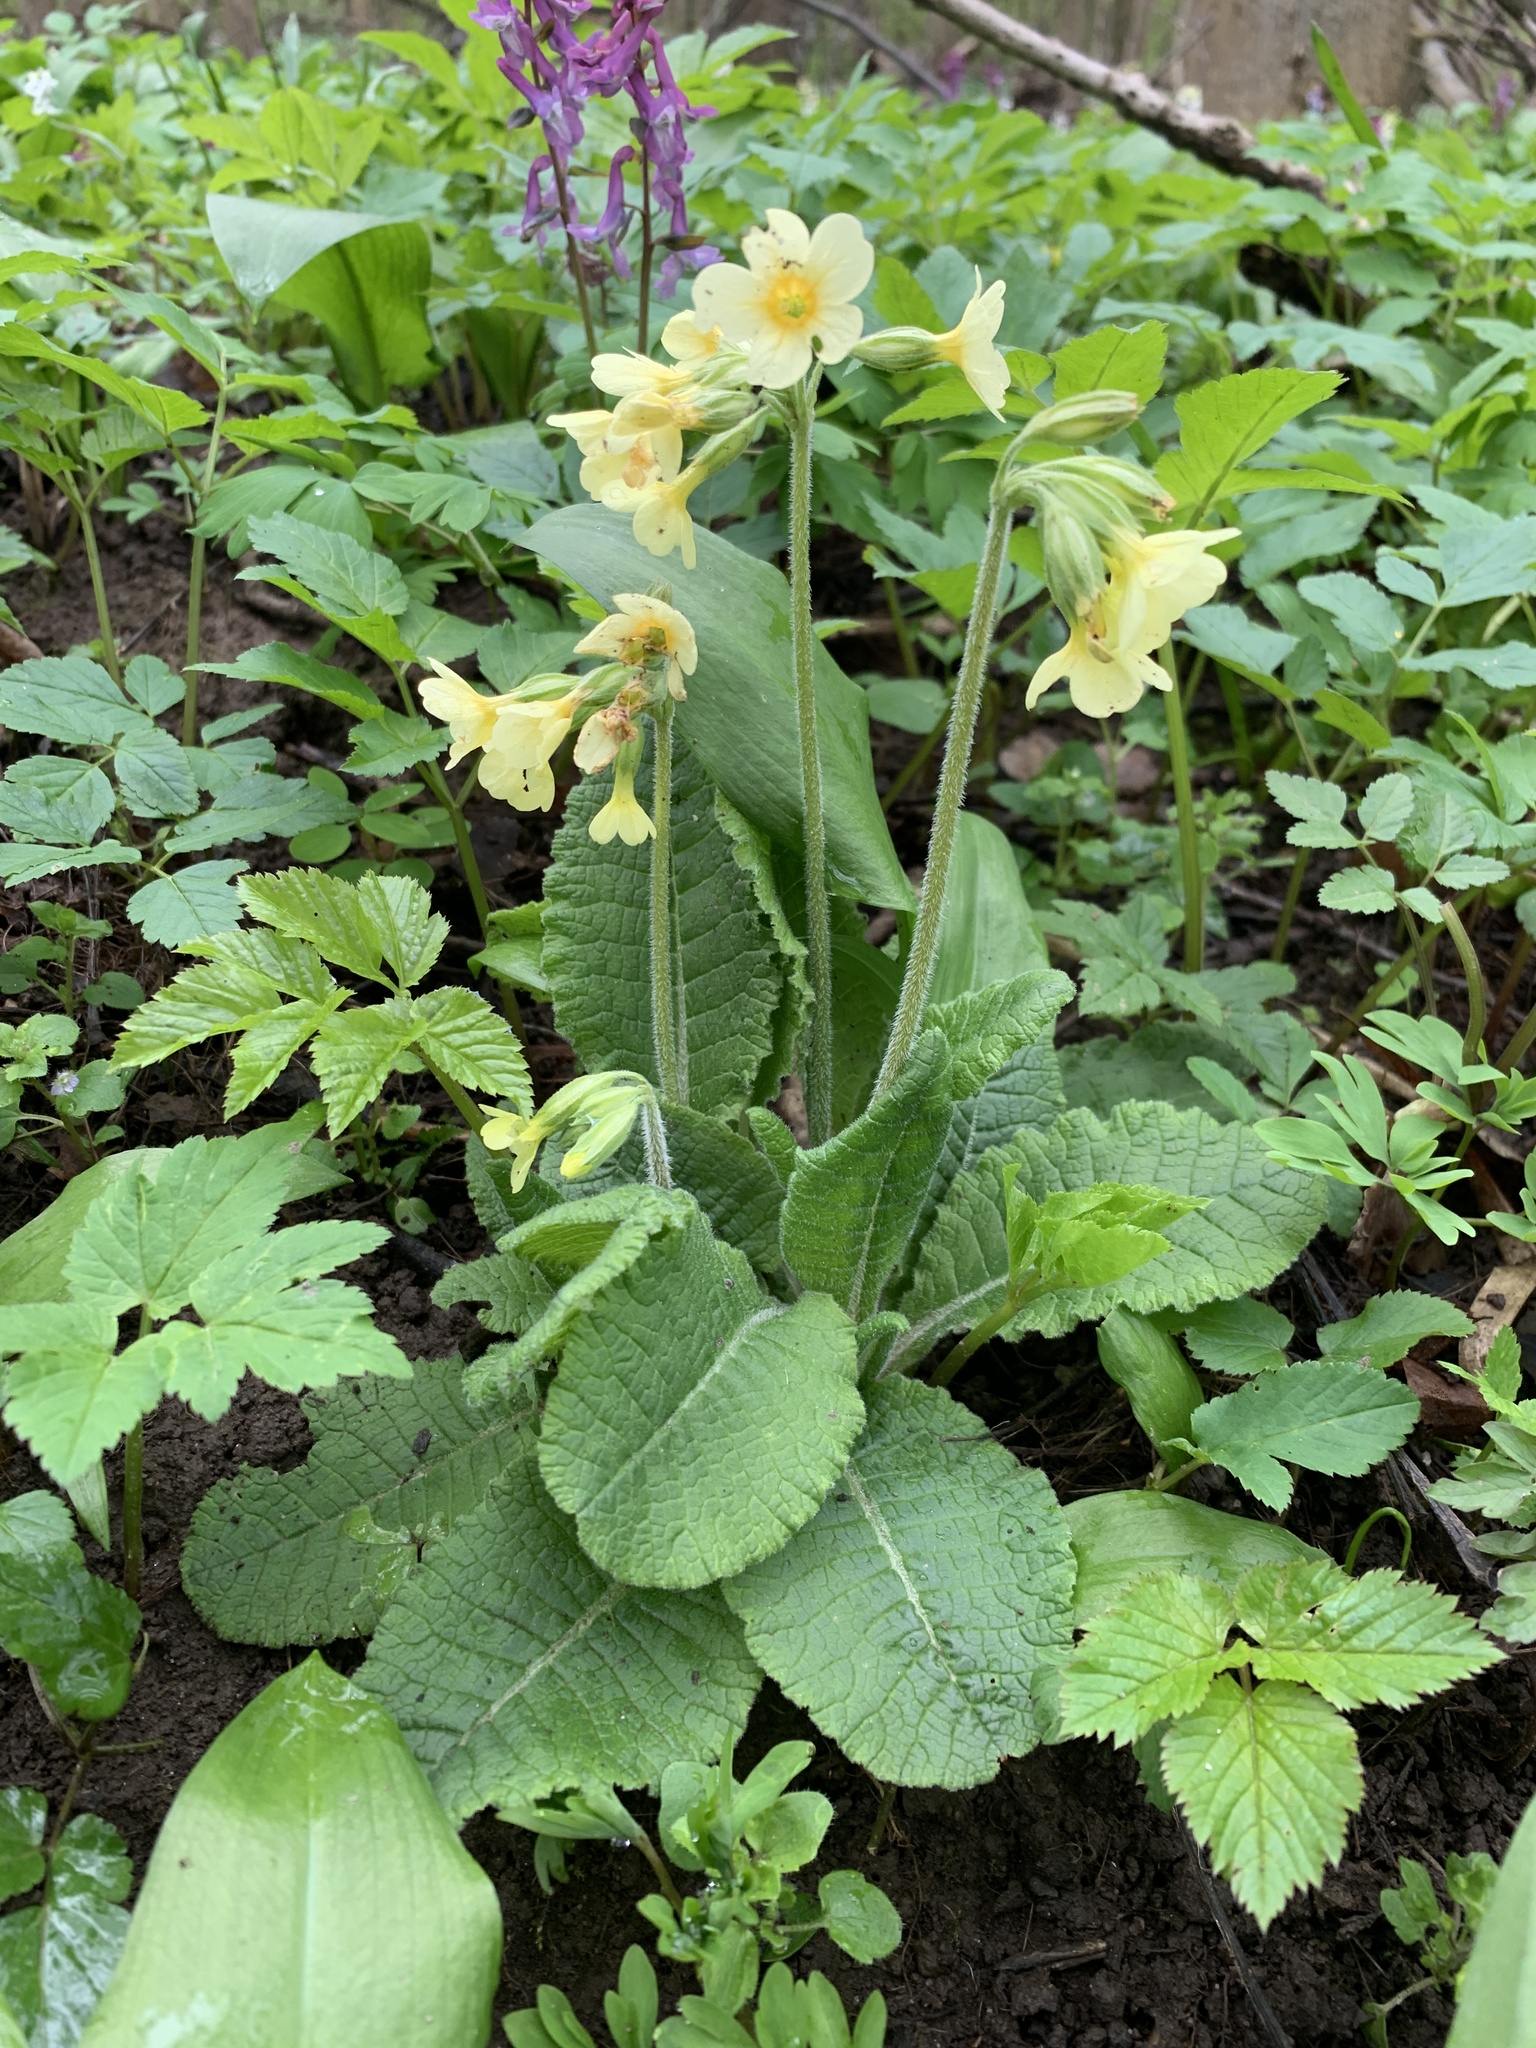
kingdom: Plantae
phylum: Tracheophyta
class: Magnoliopsida
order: Ericales
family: Primulaceae
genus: Primula
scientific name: Primula elatior
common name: Oxlip
